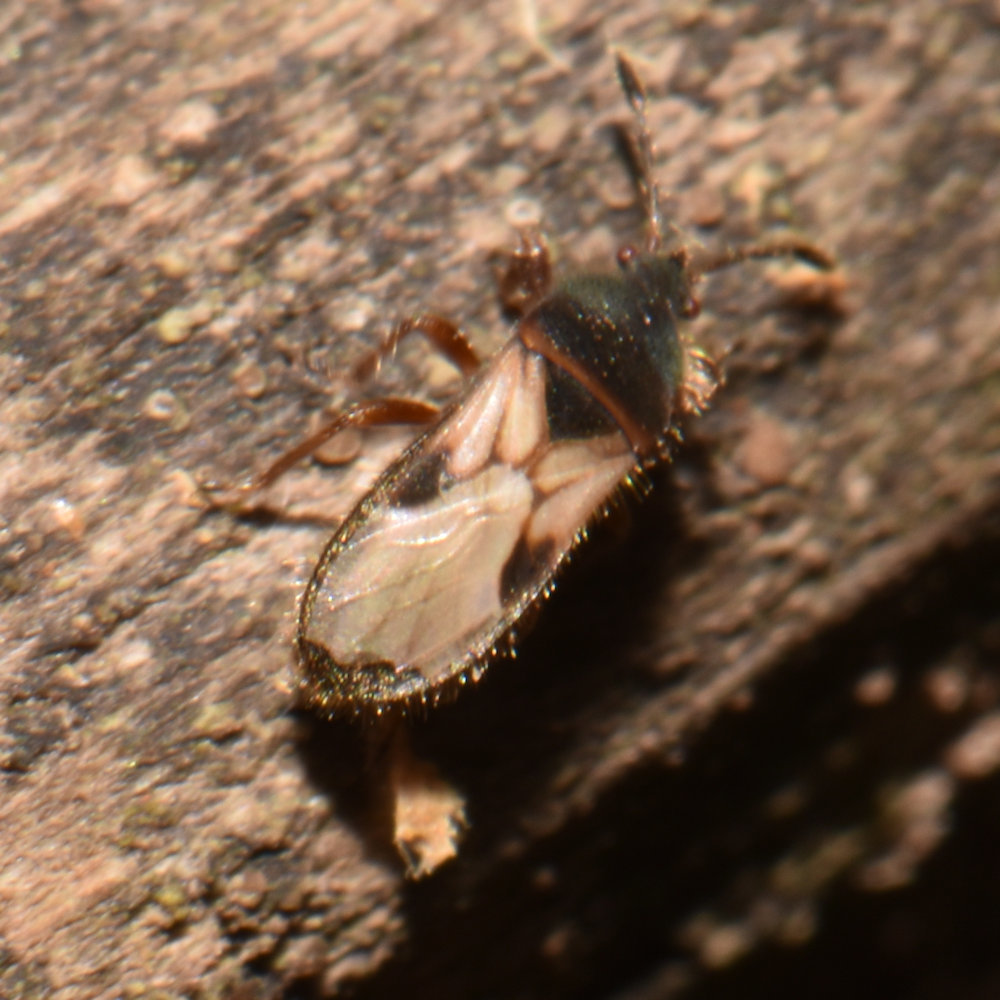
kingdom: Animalia
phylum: Arthropoda
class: Insecta
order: Hemiptera
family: Blissidae
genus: Blissus
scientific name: Blissus leucopterus
